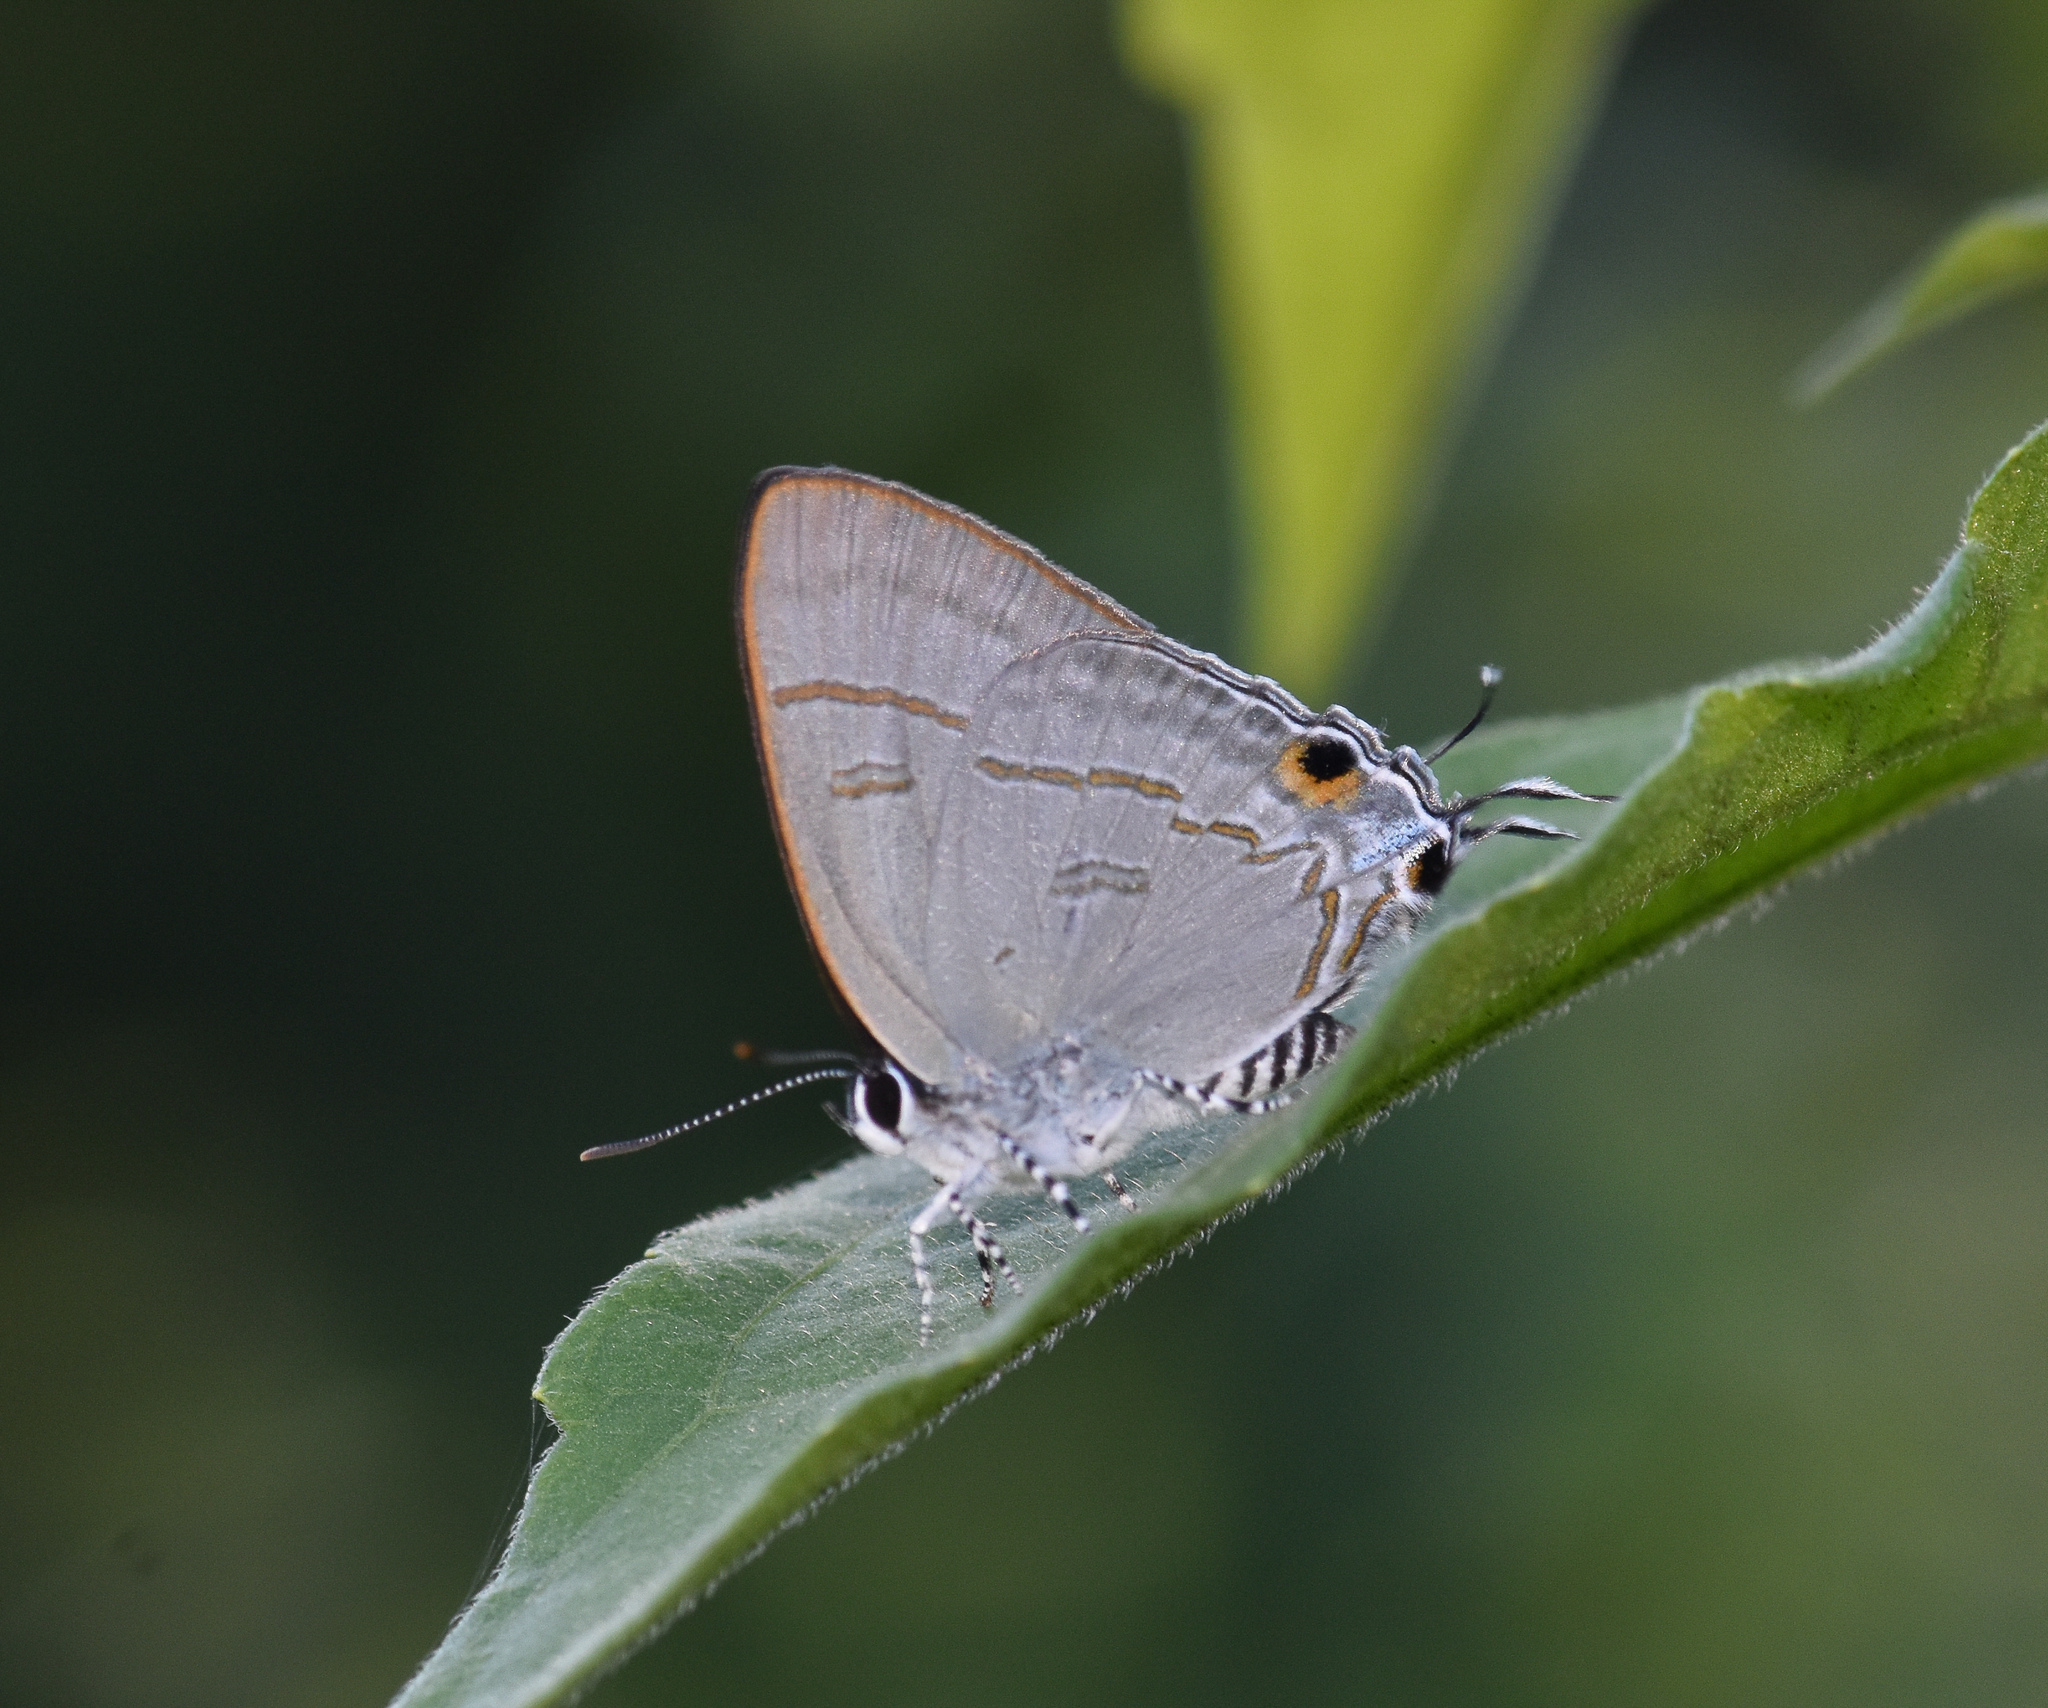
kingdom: Animalia
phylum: Arthropoda
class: Insecta
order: Lepidoptera
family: Lycaenidae
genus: Hypolycaena
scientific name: Hypolycaena erylus
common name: Common tit
